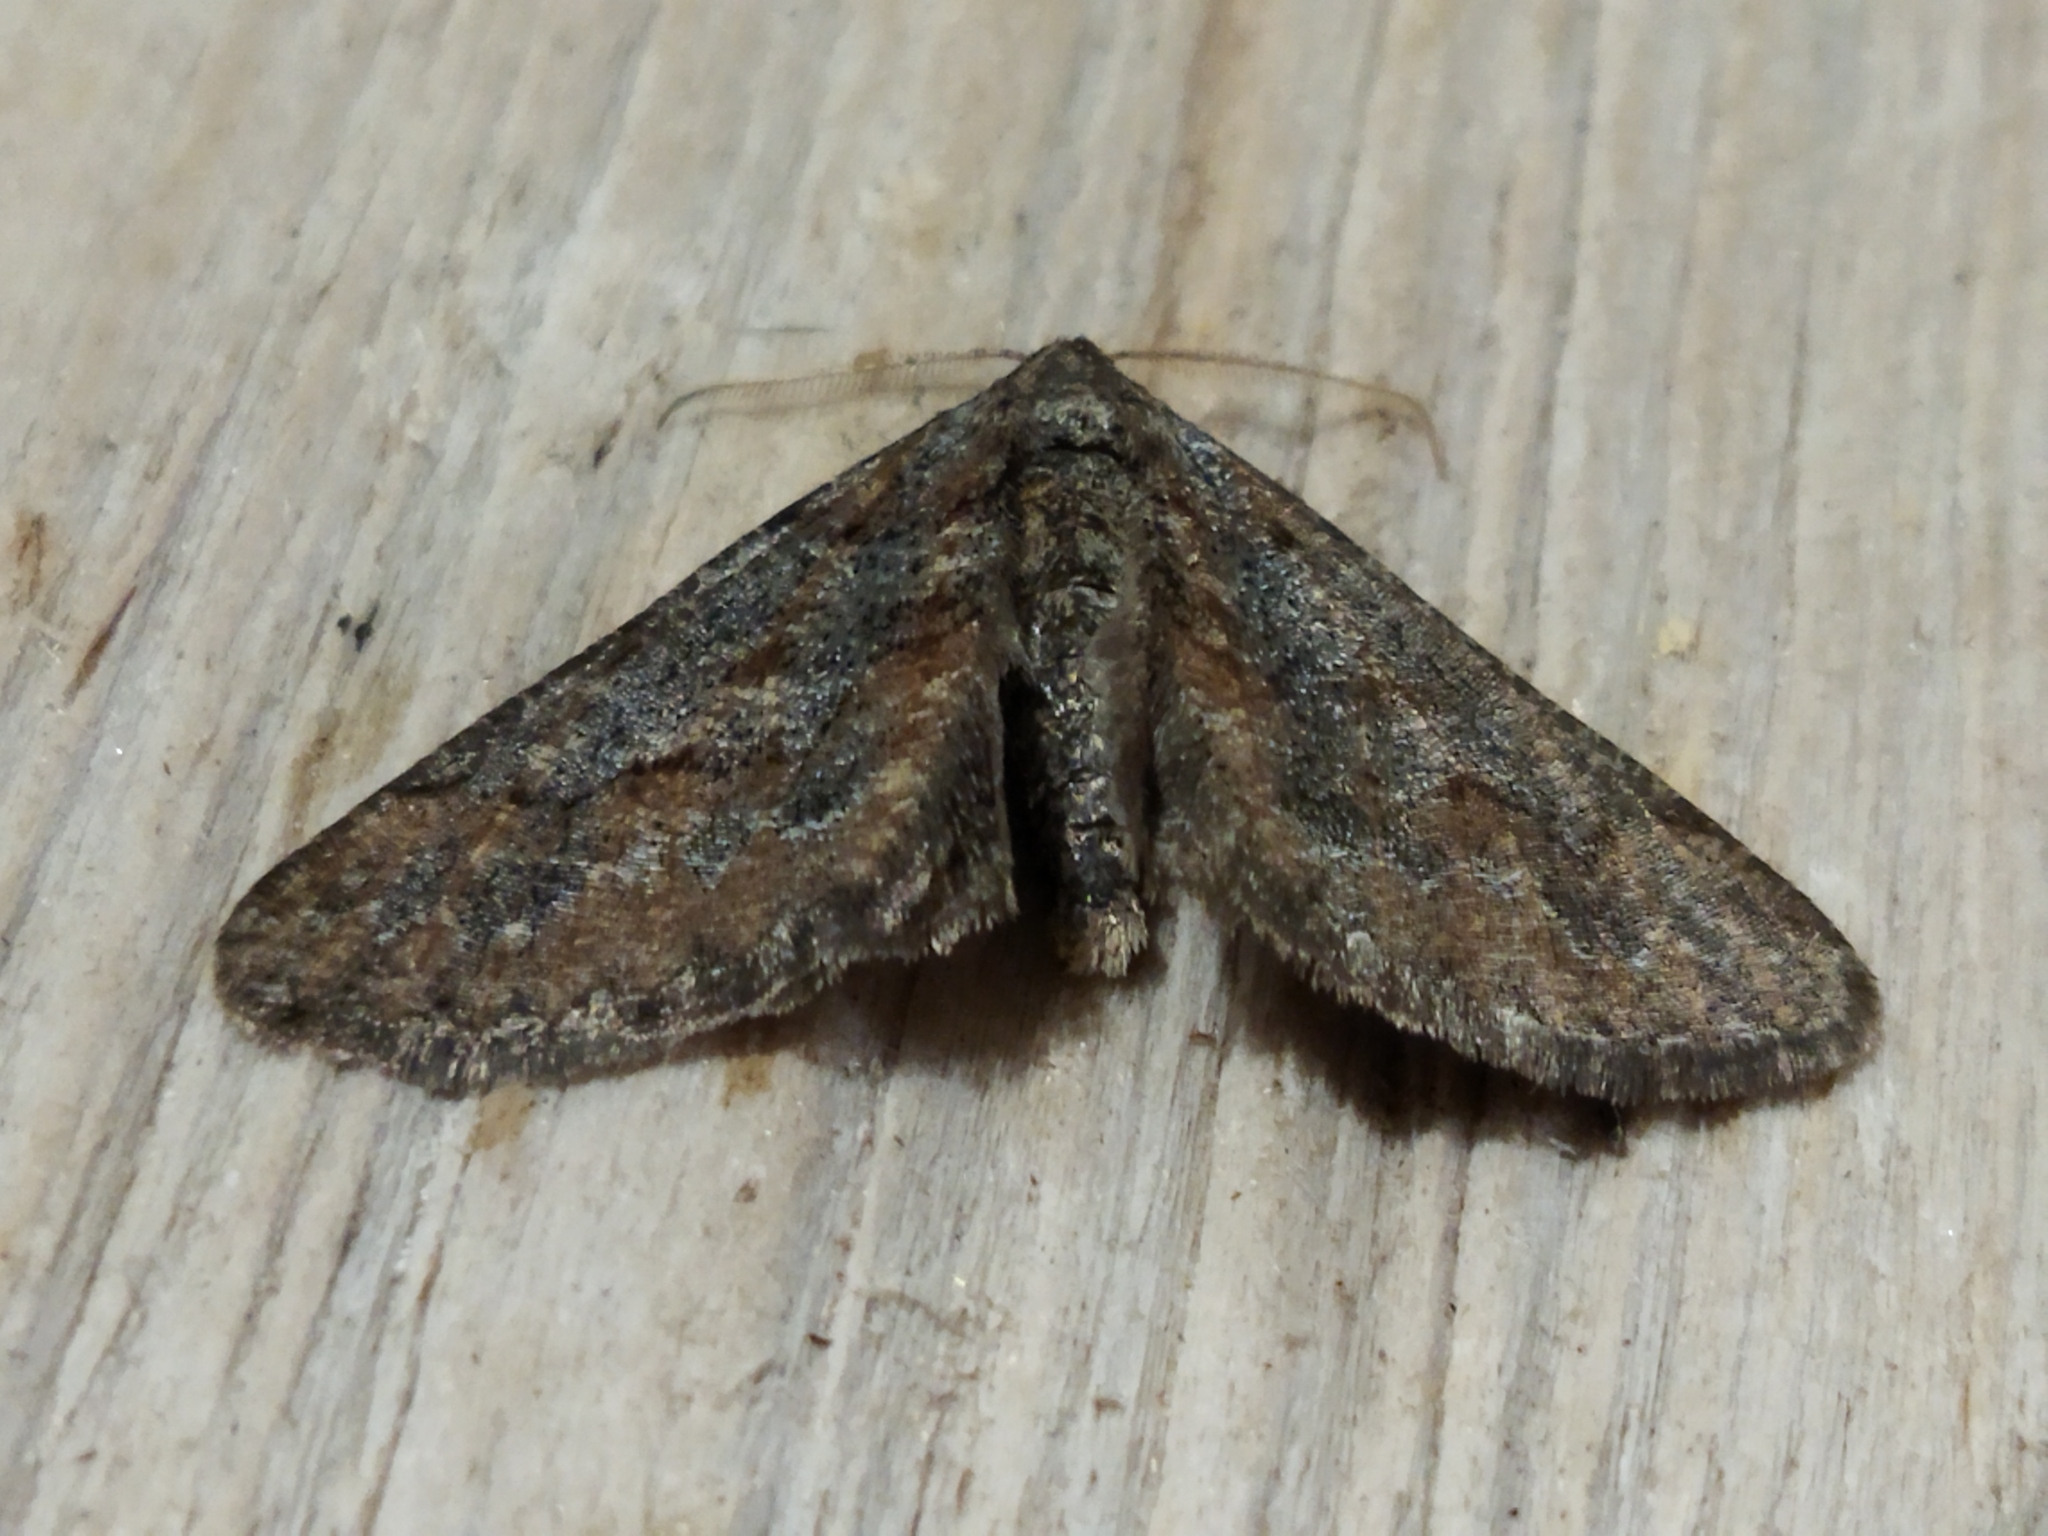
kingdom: Animalia
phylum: Arthropoda
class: Insecta
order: Lepidoptera
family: Geometridae
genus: Agriopis
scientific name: Agriopis bajaria
